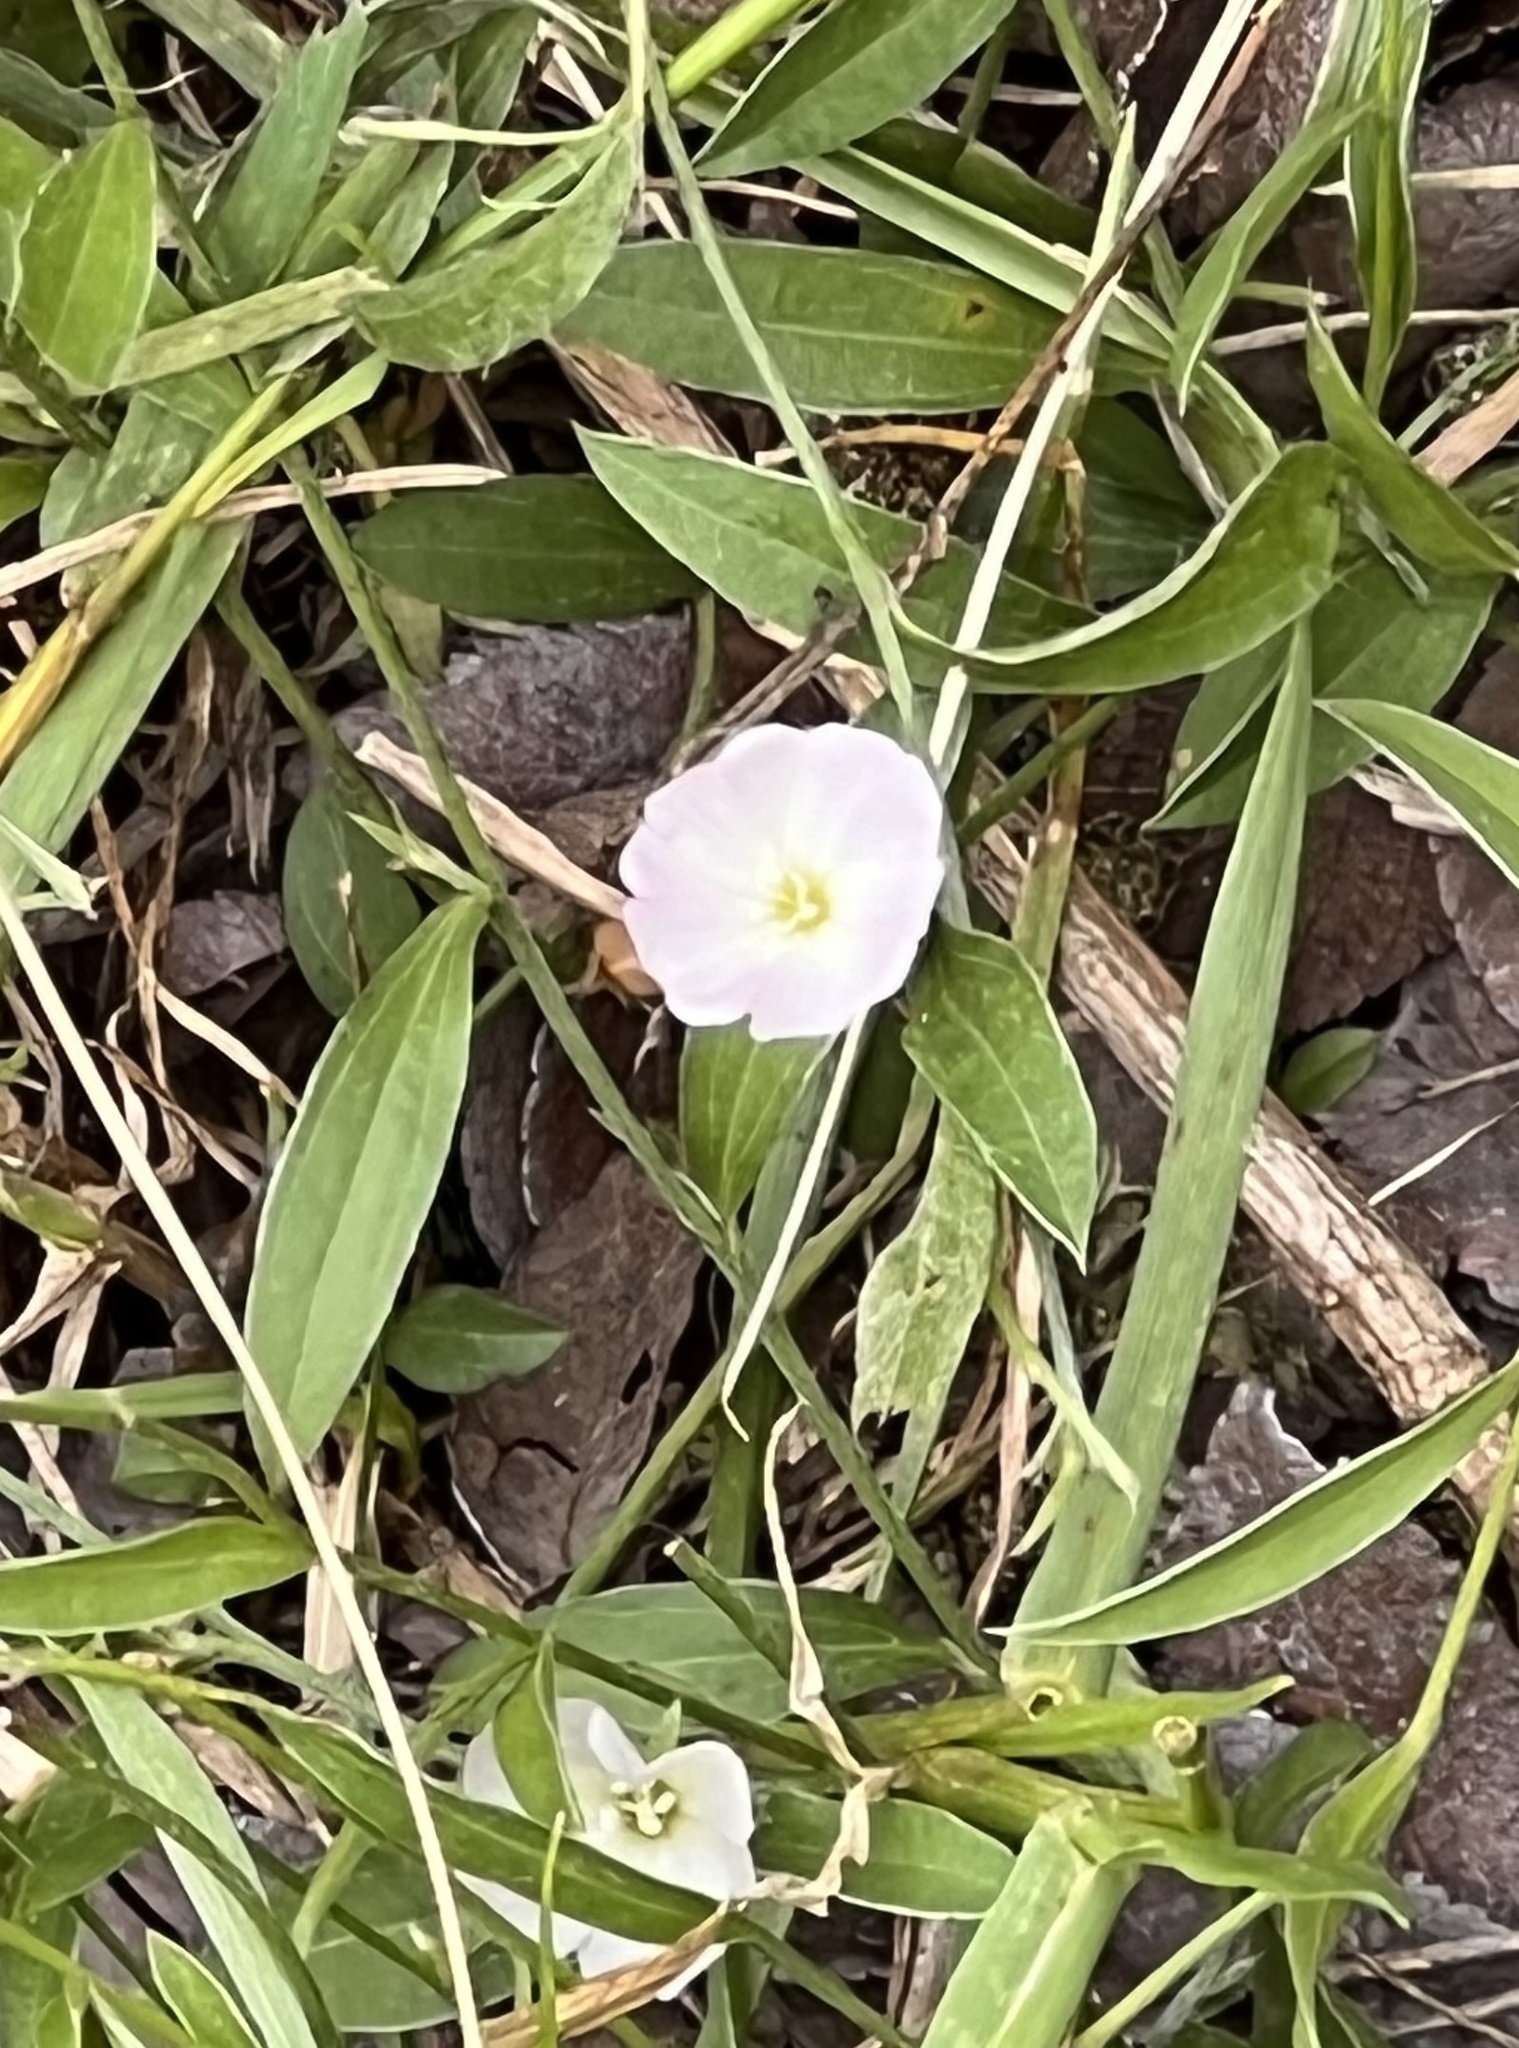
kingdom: Plantae
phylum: Tracheophyta
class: Magnoliopsida
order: Solanales
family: Convolvulaceae
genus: Evolvulus
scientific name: Evolvulus sericeus
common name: Blue dots
